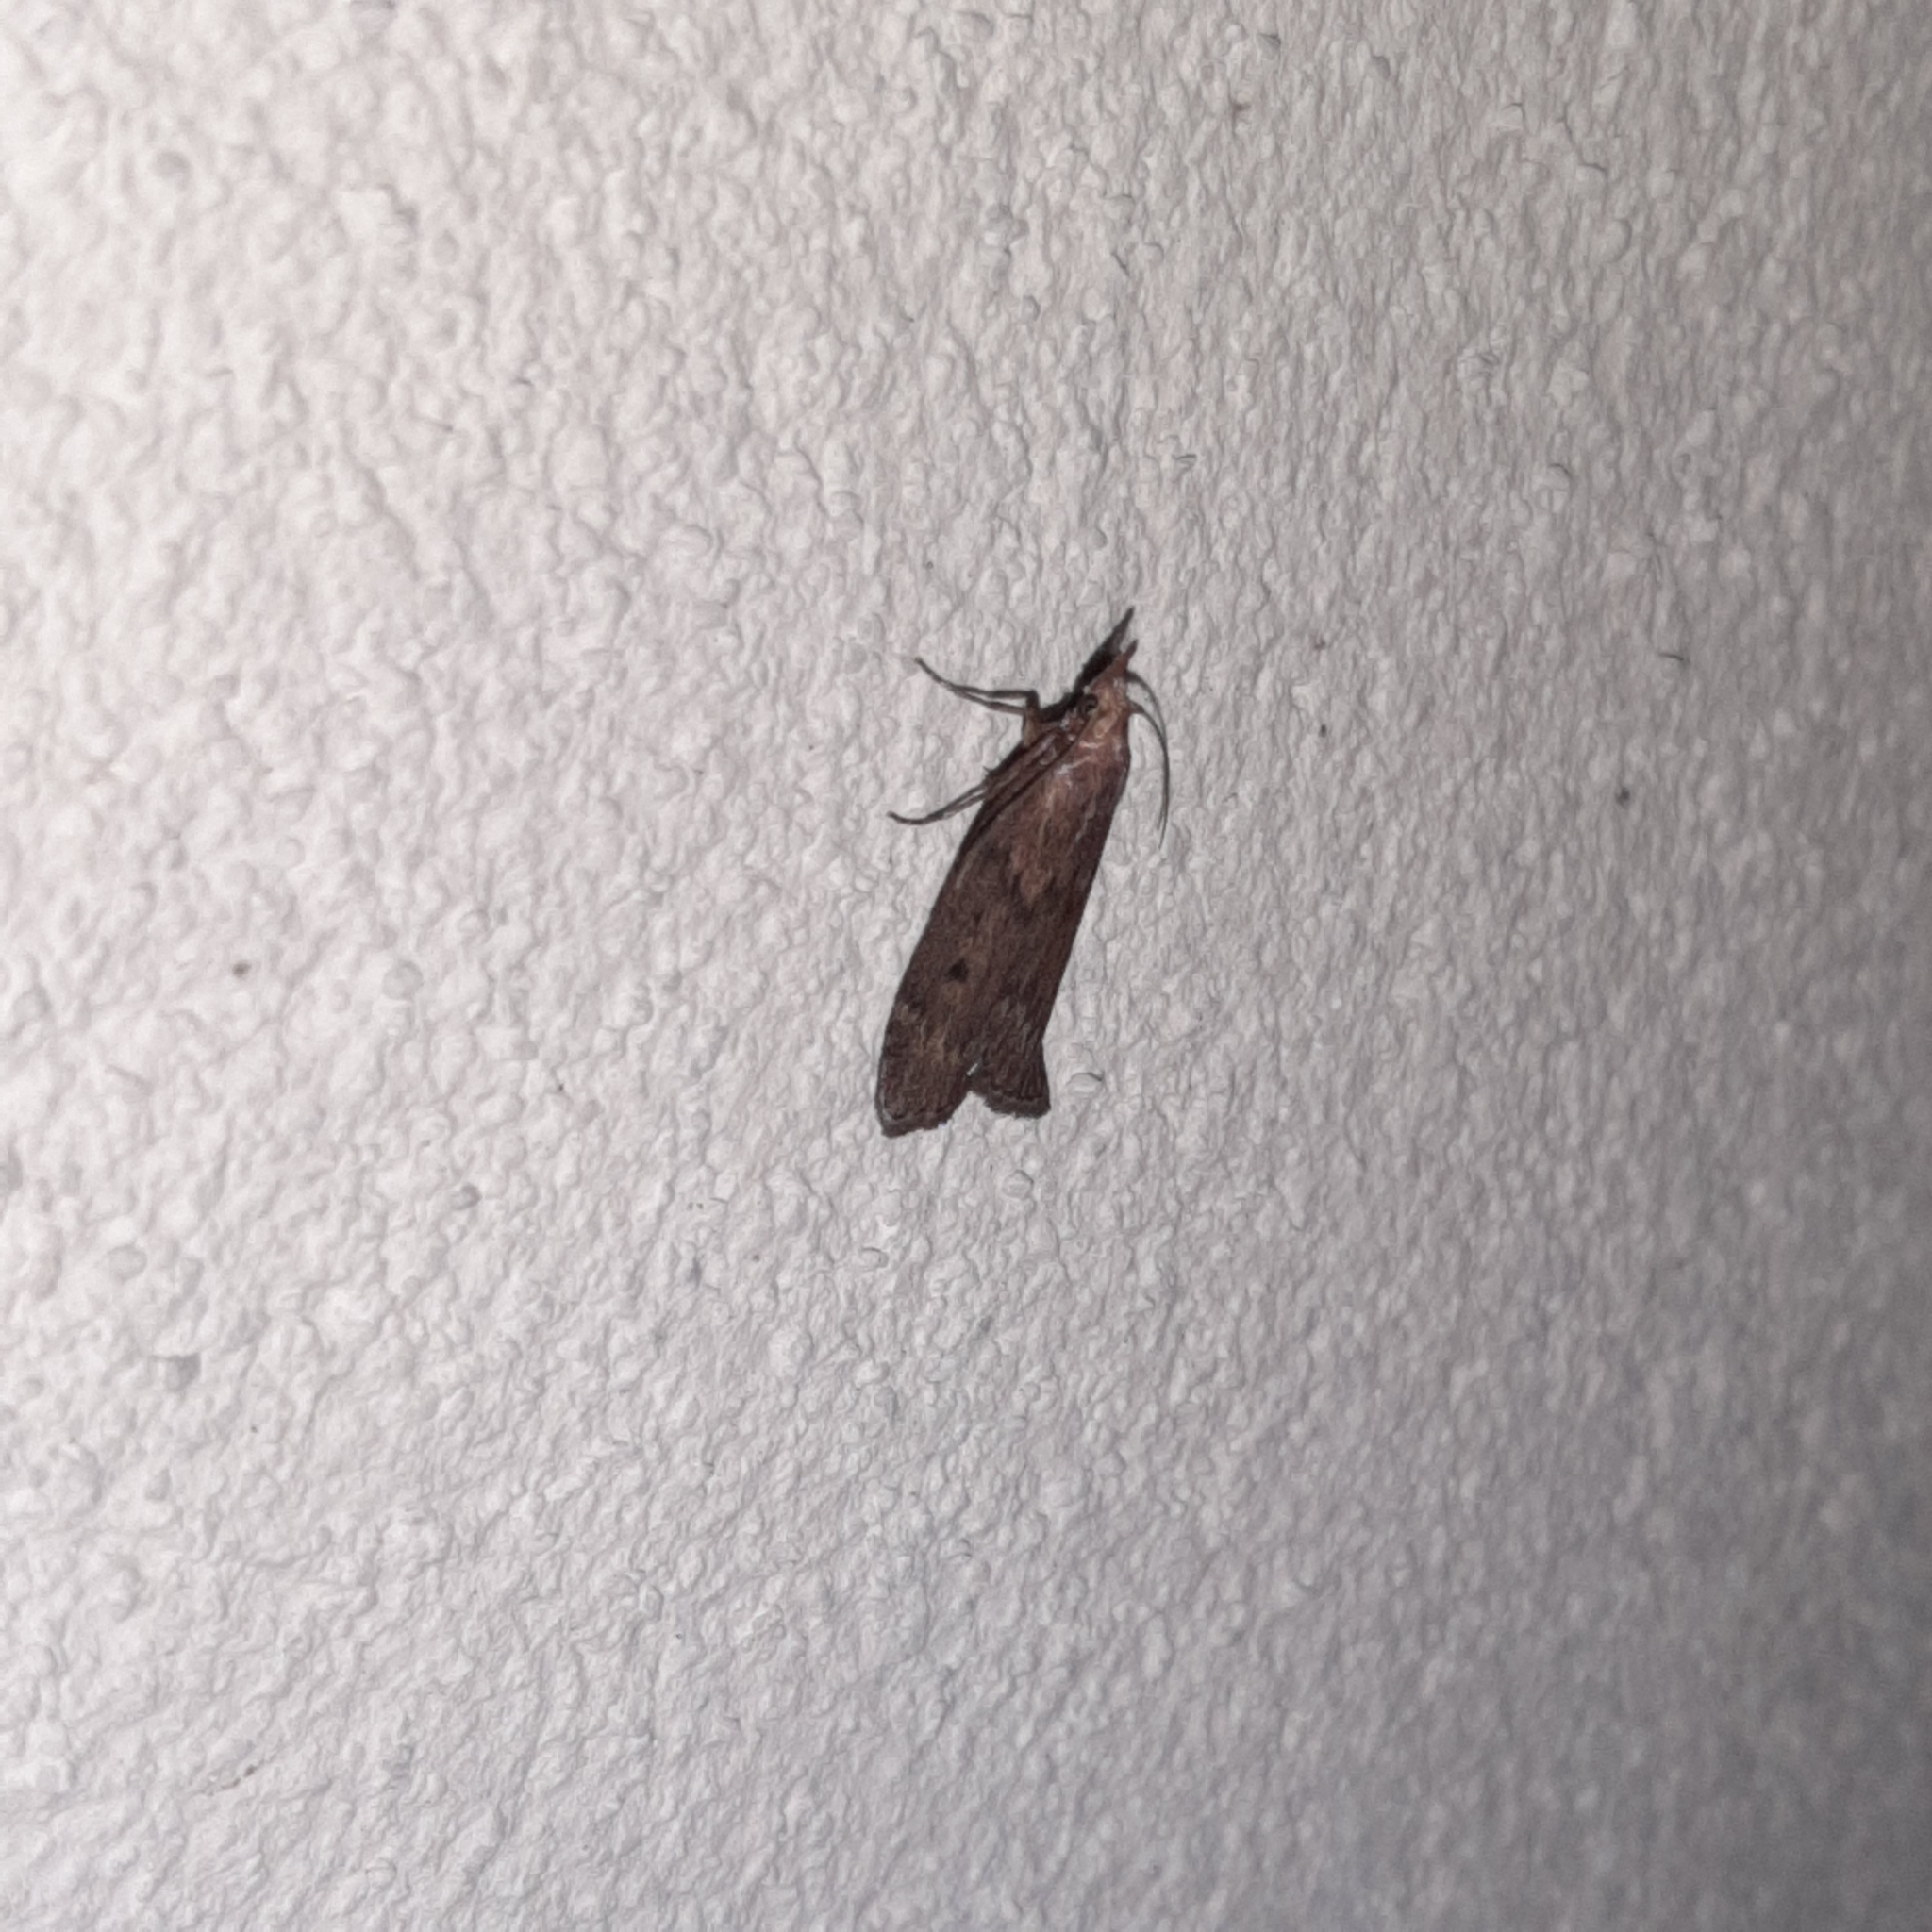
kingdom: Animalia
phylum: Arthropoda
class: Insecta
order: Lepidoptera
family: Pyralidae
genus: Aphomia
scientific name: Aphomia sociella
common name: Bee moth
